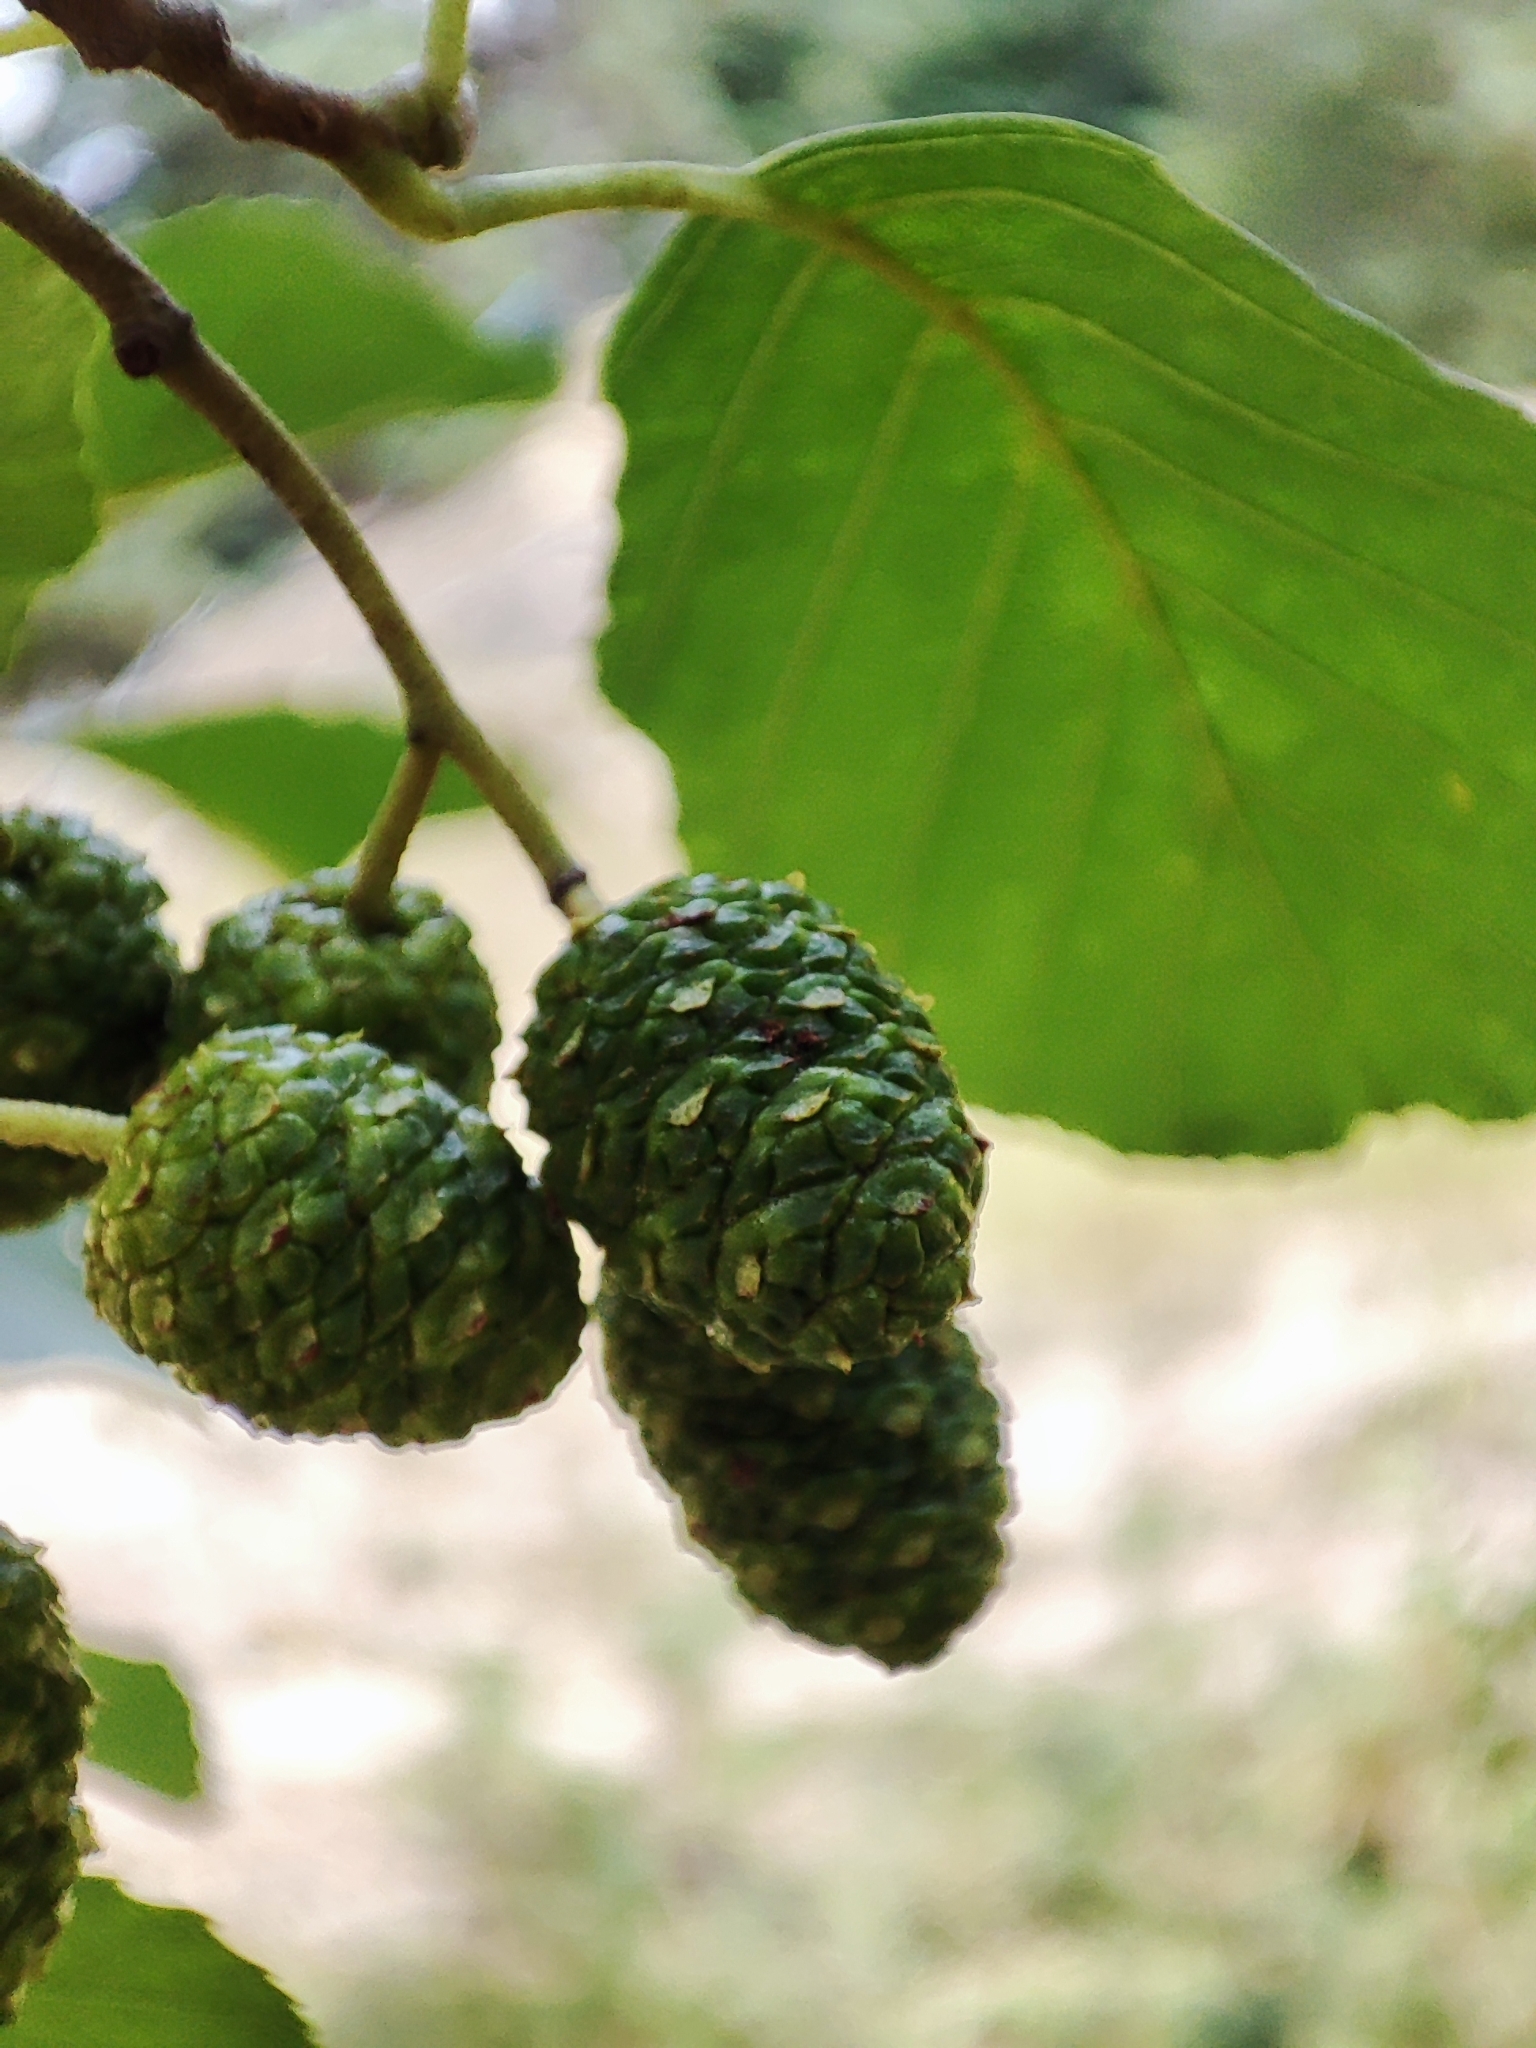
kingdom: Plantae
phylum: Tracheophyta
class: Magnoliopsida
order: Fagales
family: Betulaceae
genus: Alnus
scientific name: Alnus glutinosa
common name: Black alder
